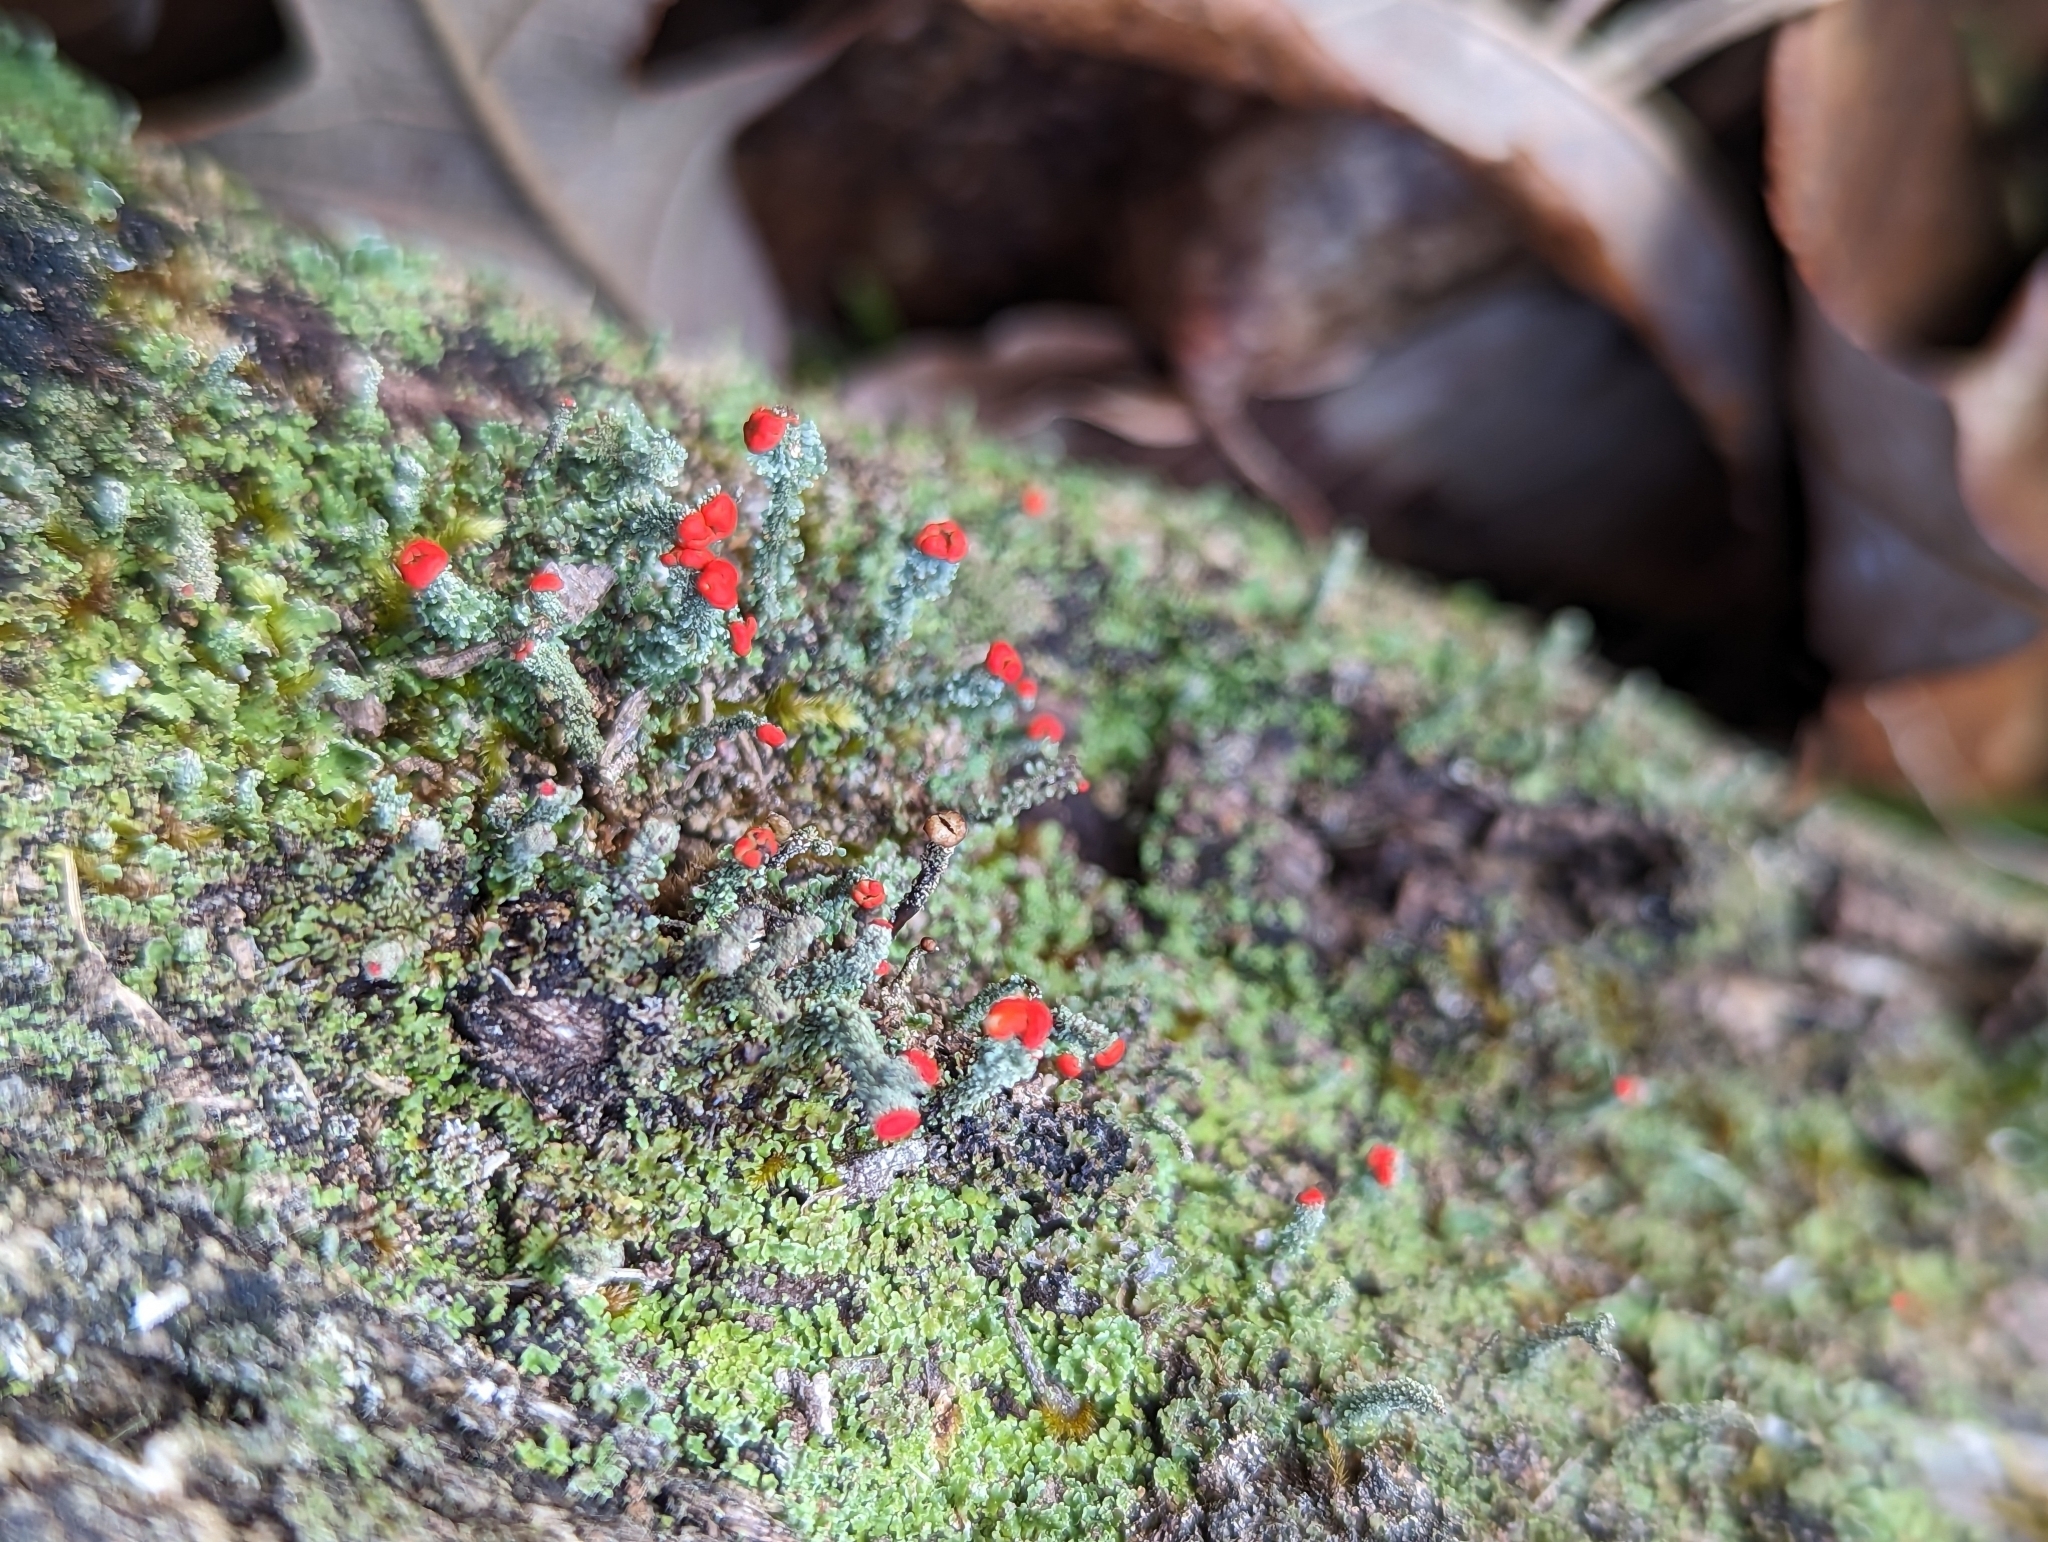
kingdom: Fungi
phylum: Ascomycota
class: Lecanoromycetes
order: Lecanorales
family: Cladoniaceae
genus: Cladonia
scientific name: Cladonia didyma
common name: Southern soldiers
